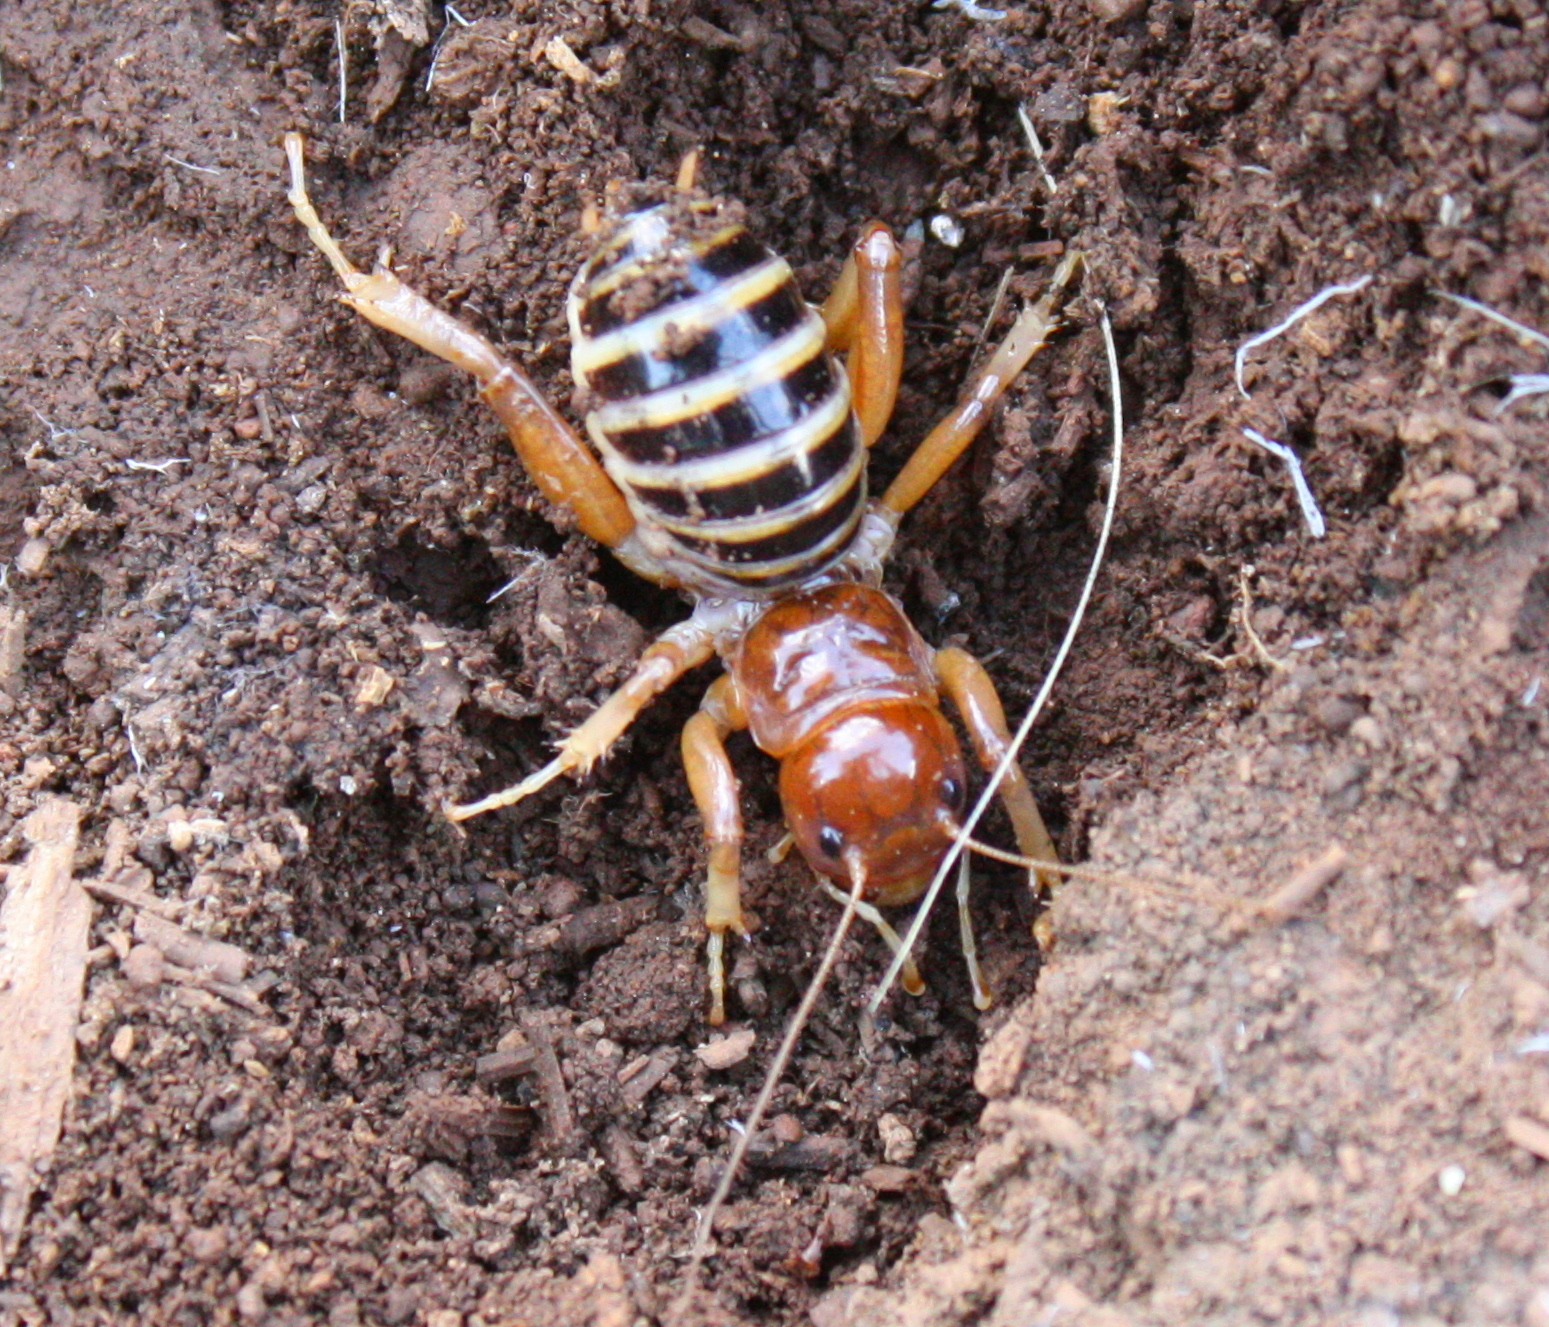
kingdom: Animalia
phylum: Arthropoda
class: Insecta
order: Orthoptera
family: Stenopelmatidae
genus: Ammopelmatus
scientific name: Ammopelmatus fuscus
